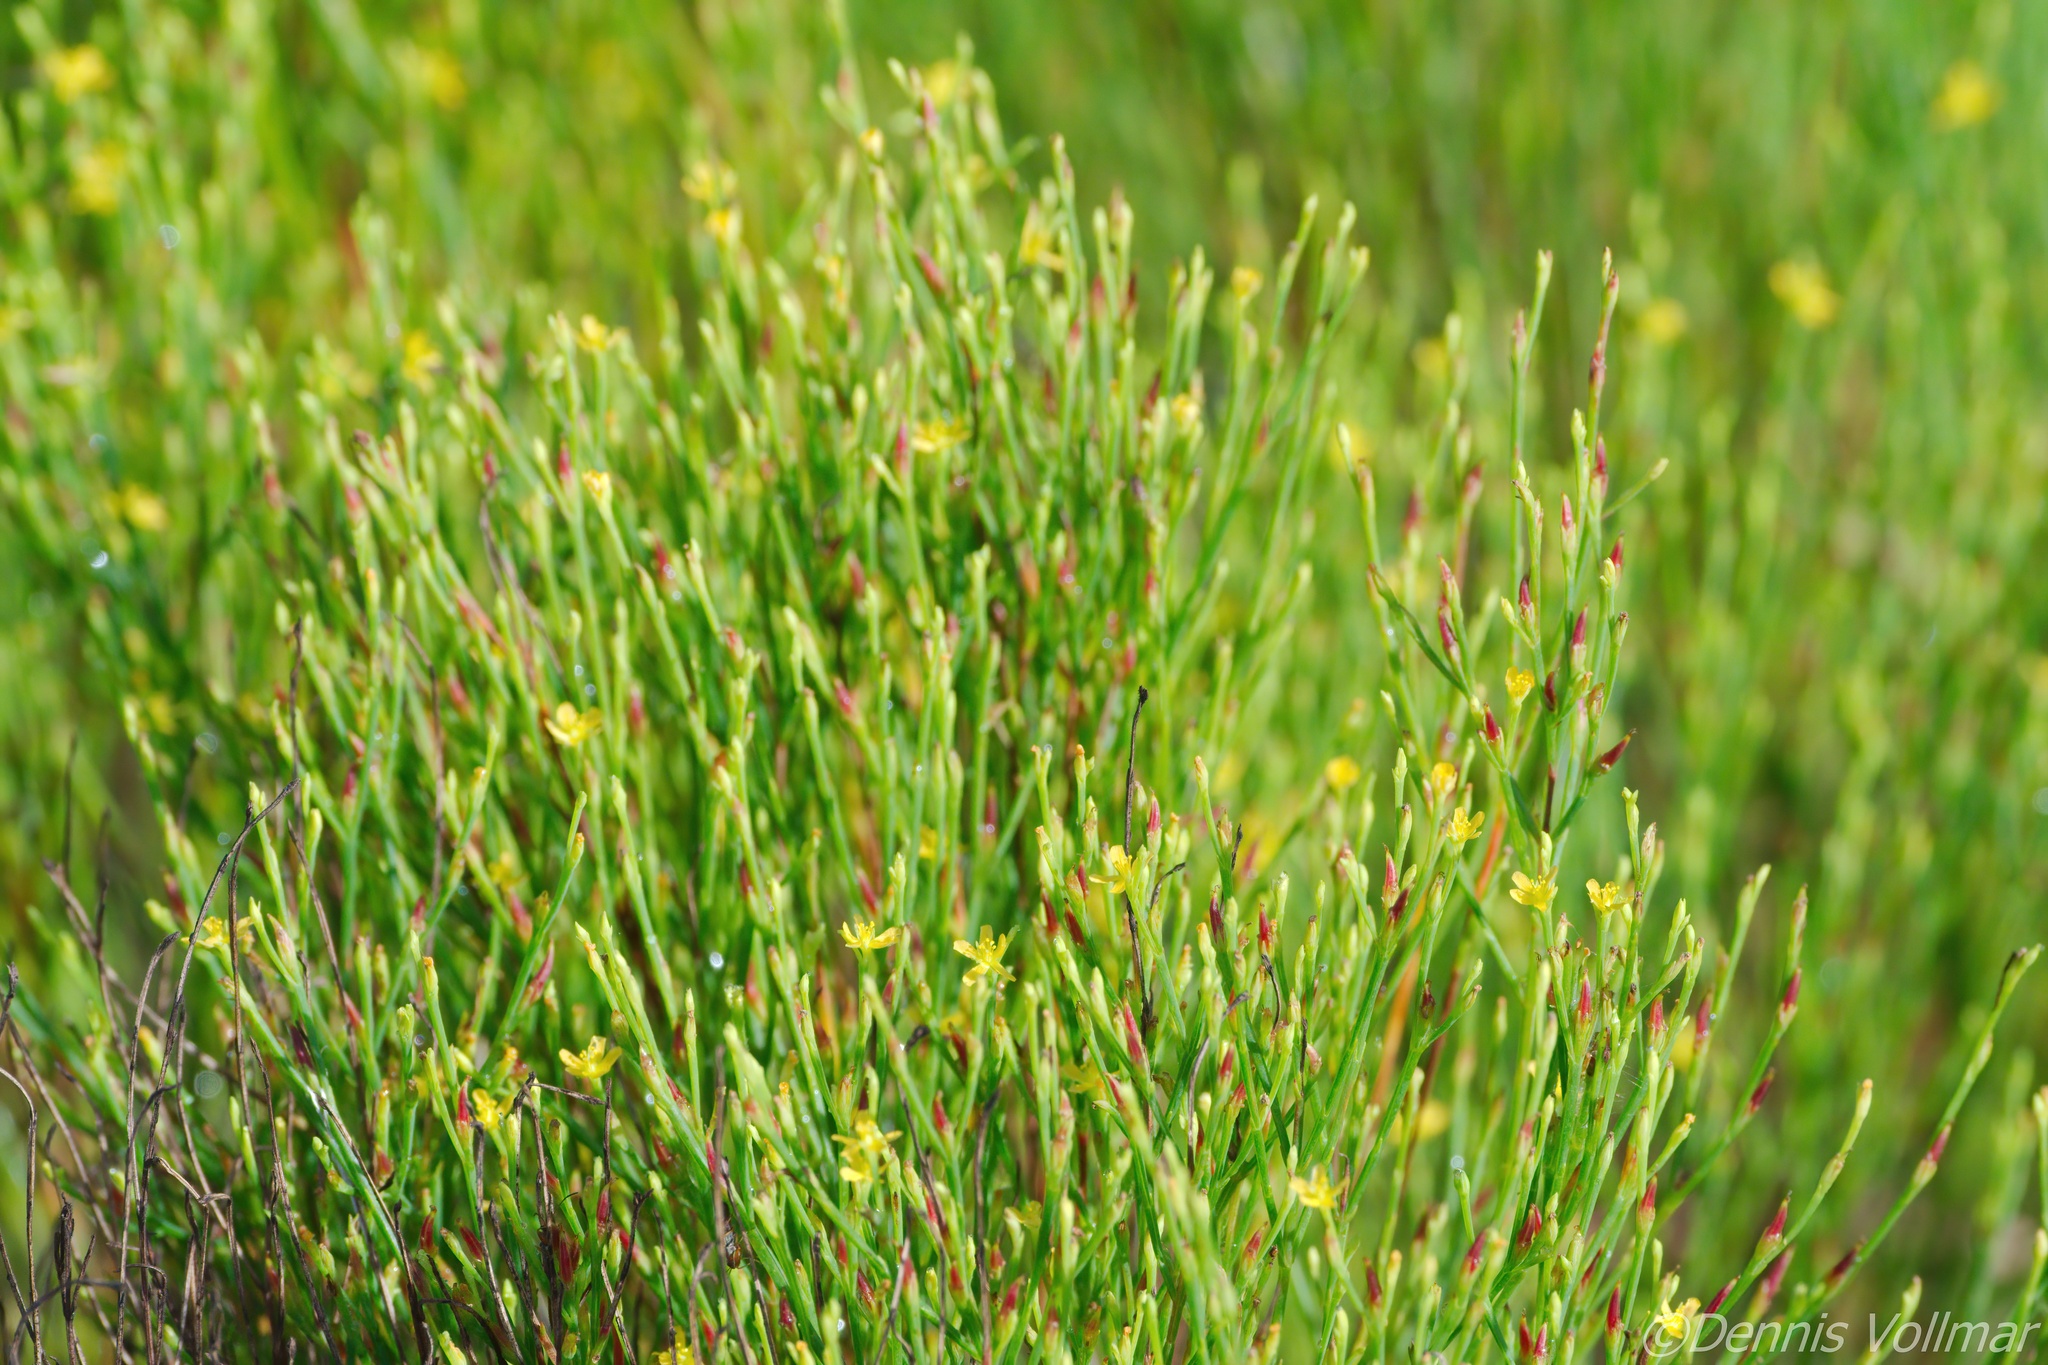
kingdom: Plantae
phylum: Tracheophyta
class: Magnoliopsida
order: Malpighiales
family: Hypericaceae
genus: Hypericum
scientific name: Hypericum gentianoides
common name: Gentian-leaved st. john's-wort
